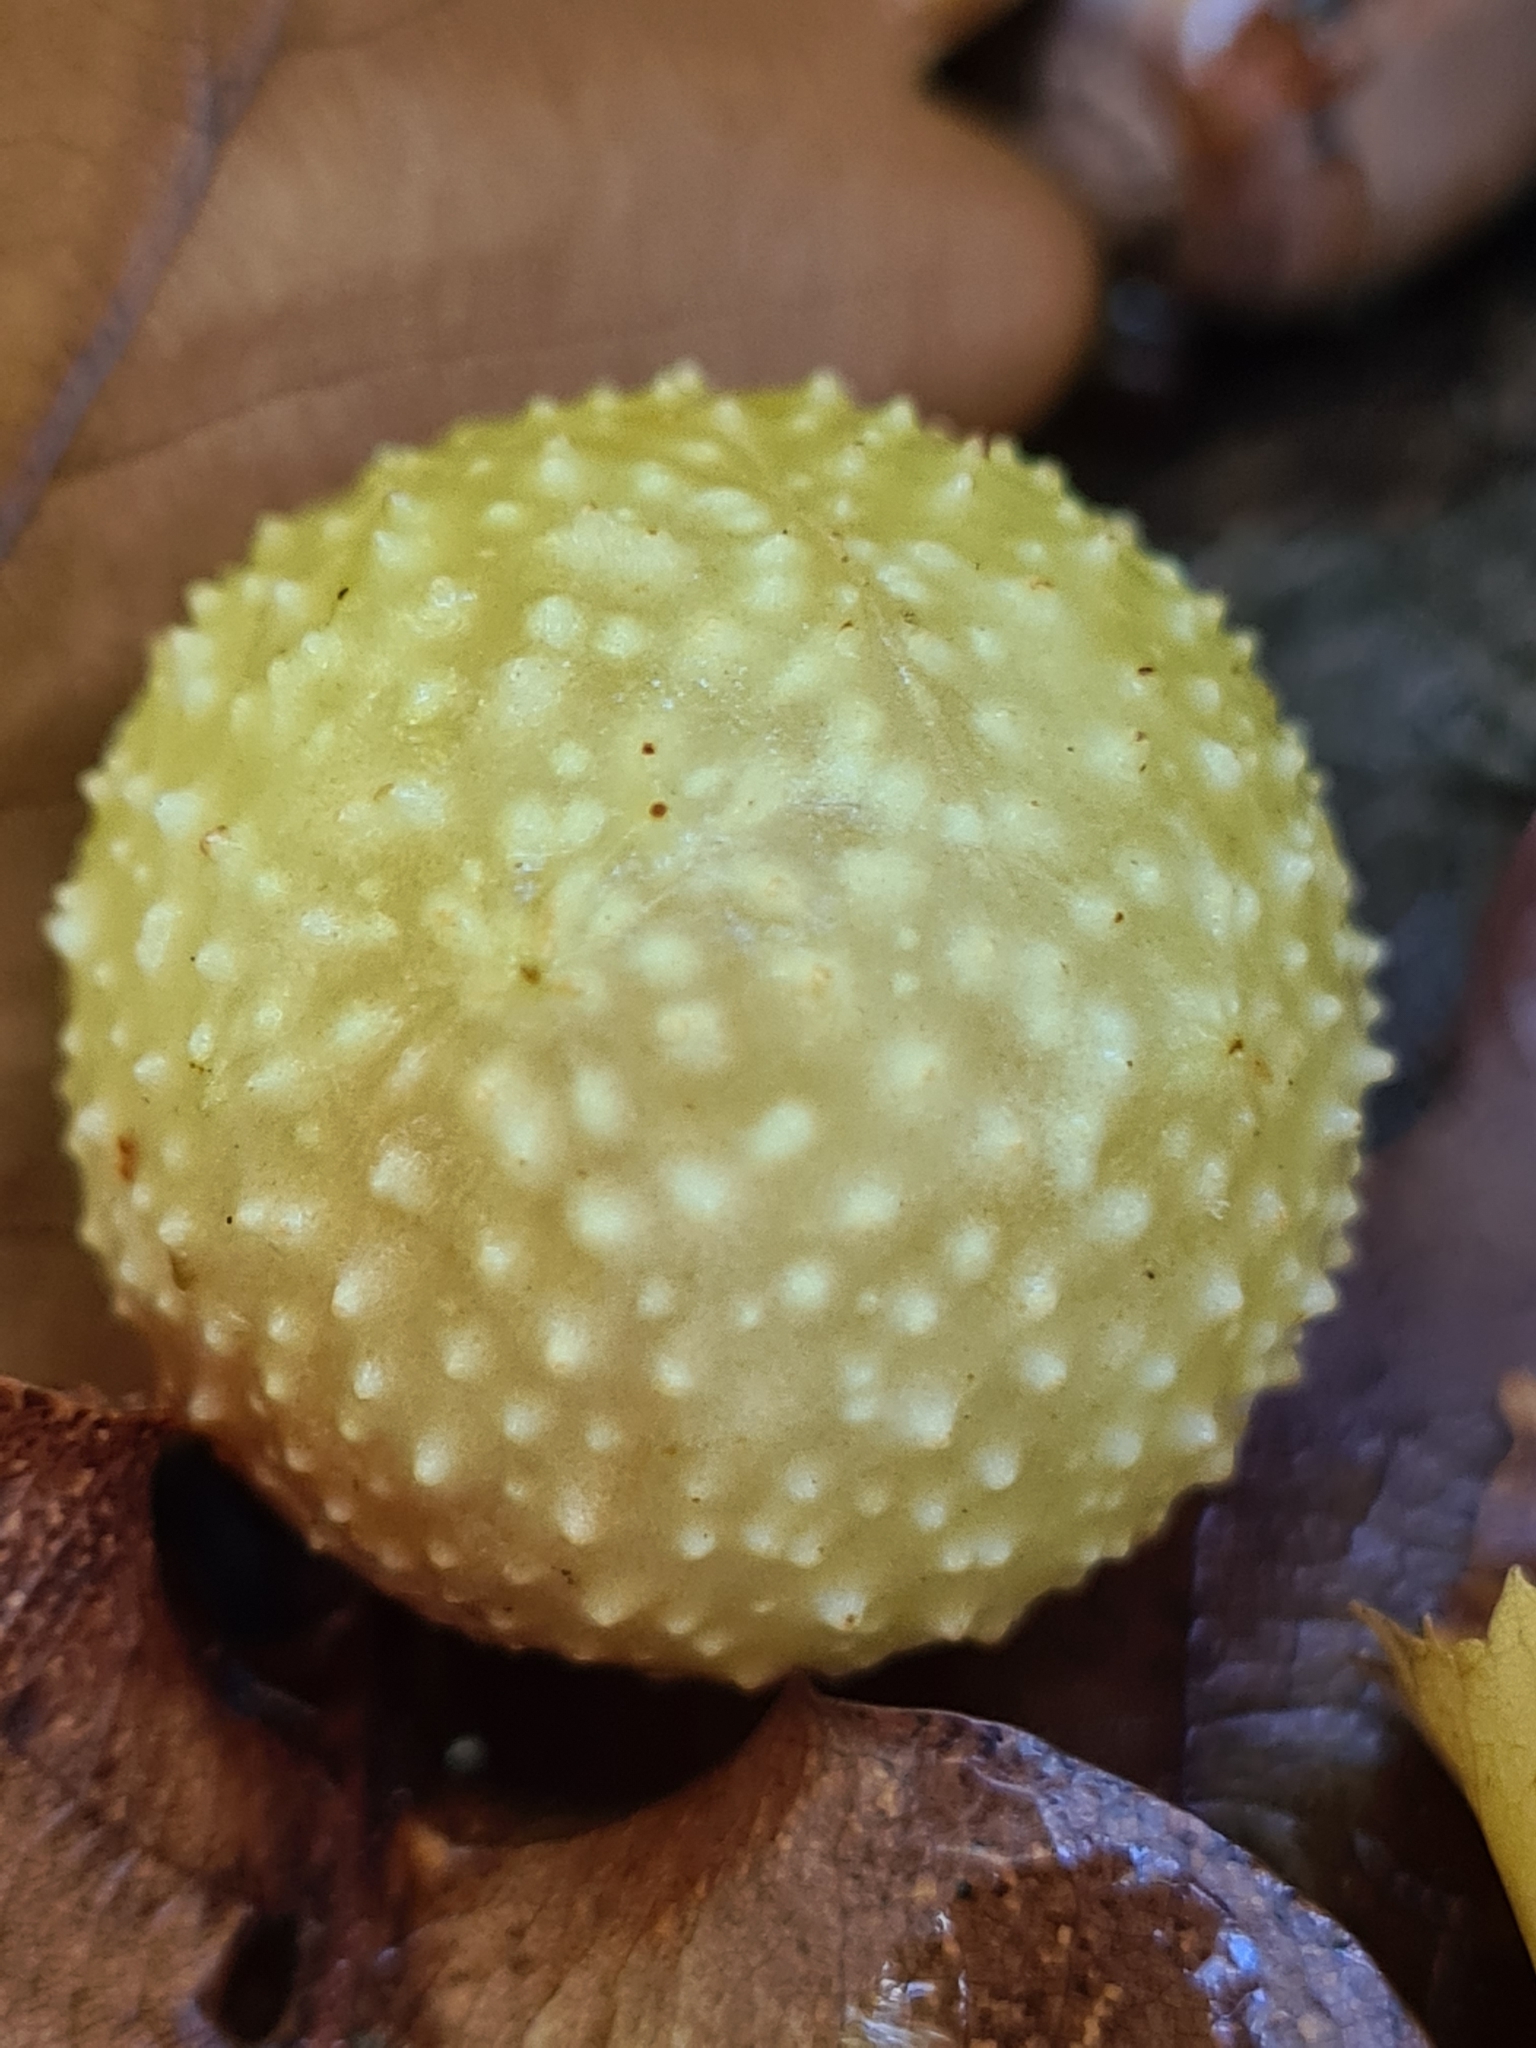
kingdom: Animalia
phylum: Arthropoda
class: Insecta
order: Hymenoptera
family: Cynipidae
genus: Cynips
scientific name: Cynips quercusfolii
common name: Cherry gall
